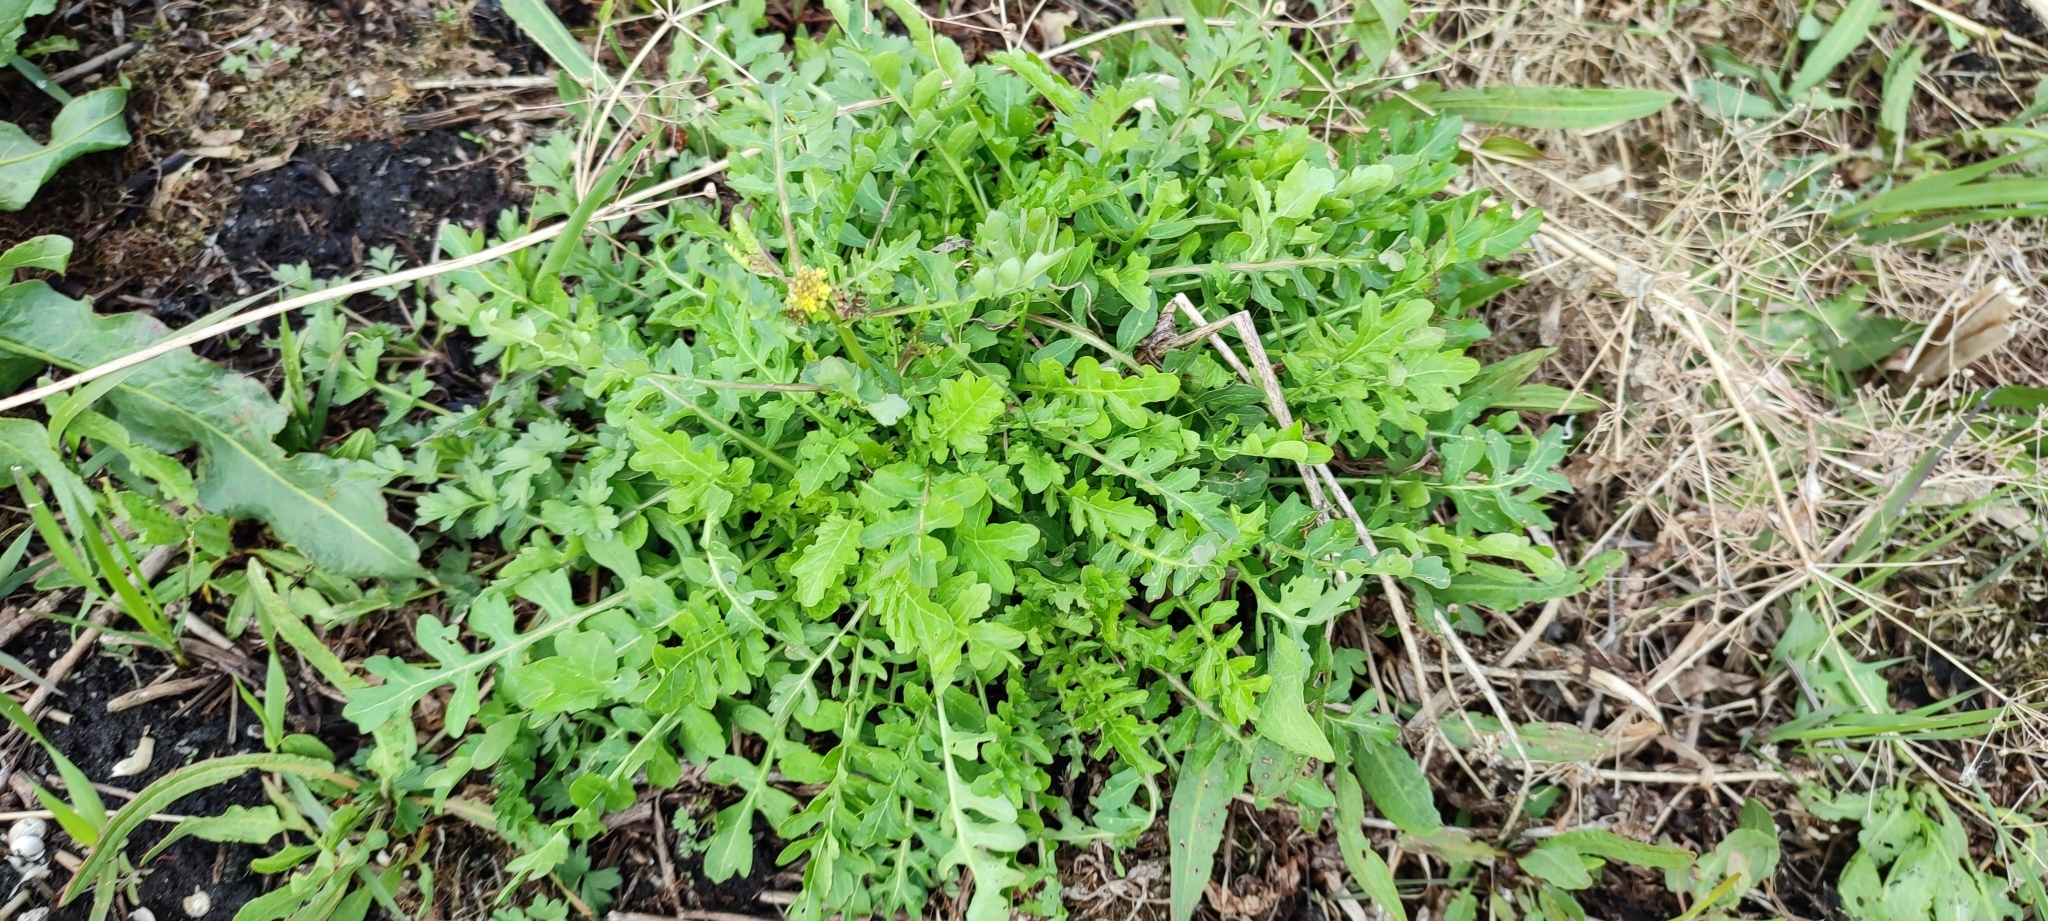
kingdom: Plantae
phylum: Tracheophyta
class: Magnoliopsida
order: Brassicales
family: Brassicaceae
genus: Rorippa
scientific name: Rorippa palustris
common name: Marsh yellow-cress
